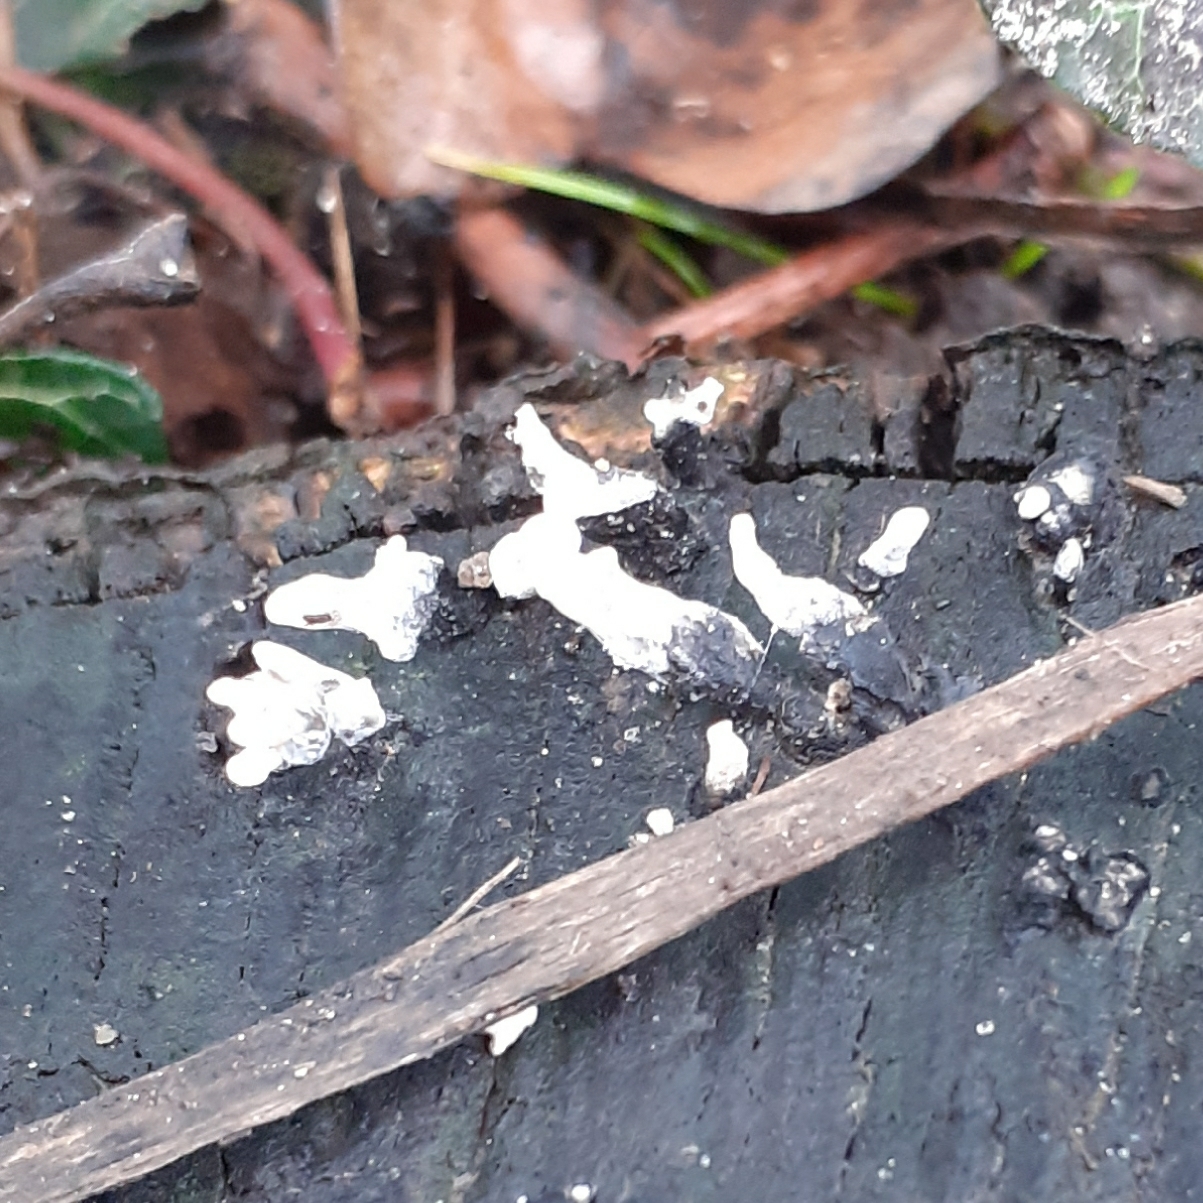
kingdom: Fungi
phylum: Ascomycota
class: Sordariomycetes
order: Xylariales
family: Xylariaceae
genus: Xylaria
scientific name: Xylaria hypoxylon
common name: Candle-snuff fungus
